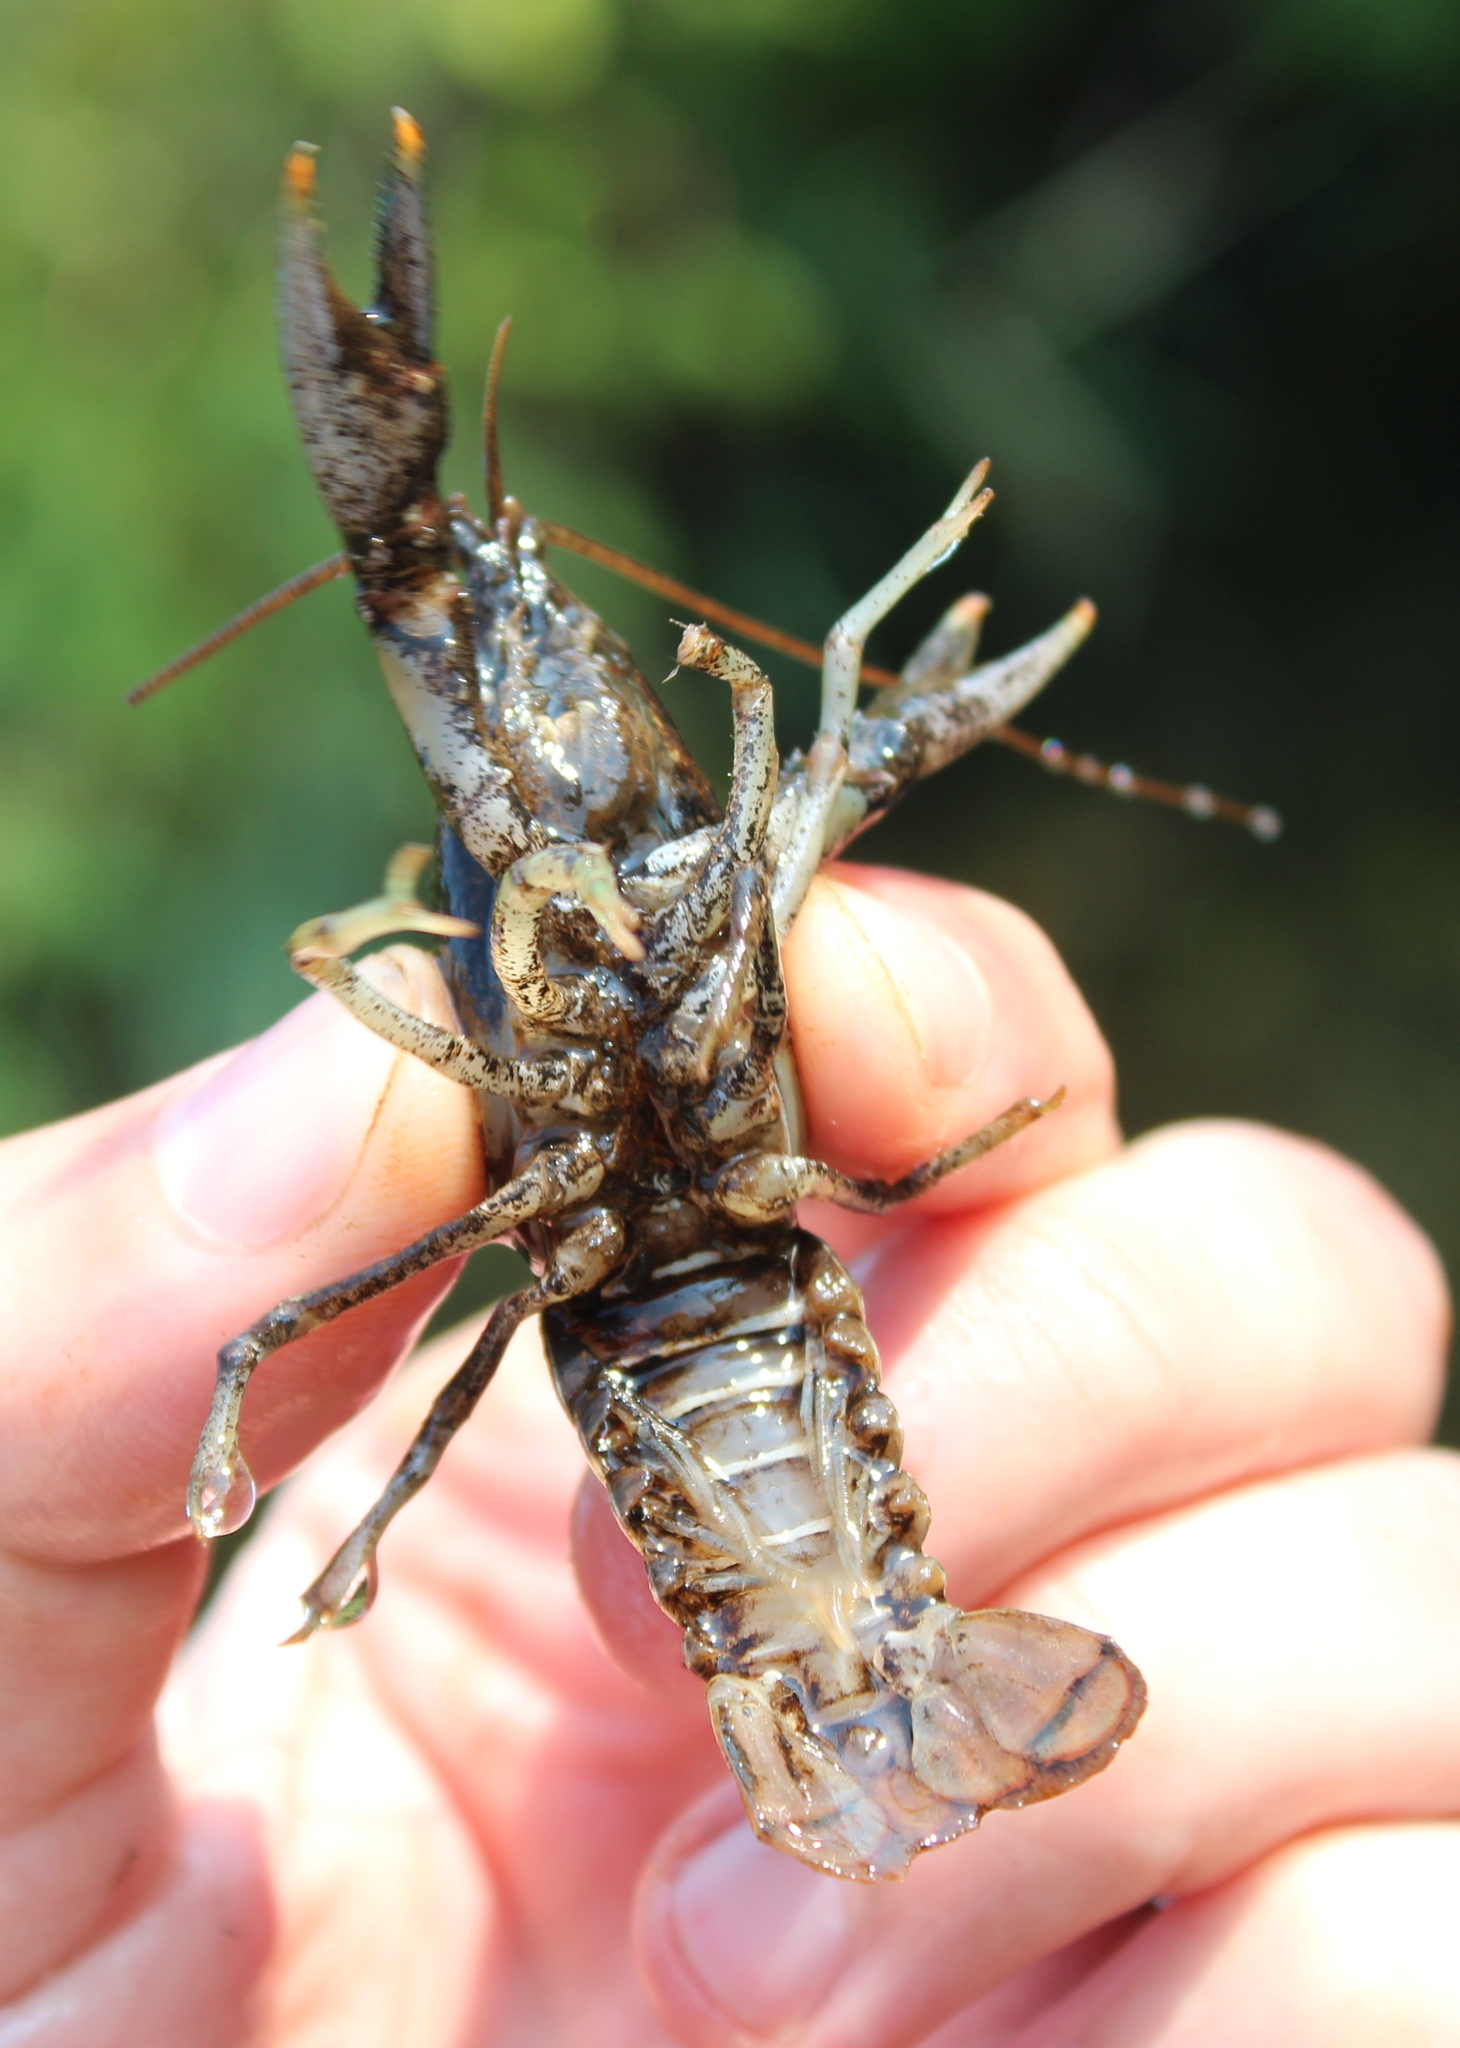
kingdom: Animalia
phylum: Arthropoda
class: Malacostraca
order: Decapoda
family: Cambaridae
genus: Faxonius
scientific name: Faxonius virilis
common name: Virile crayfish
